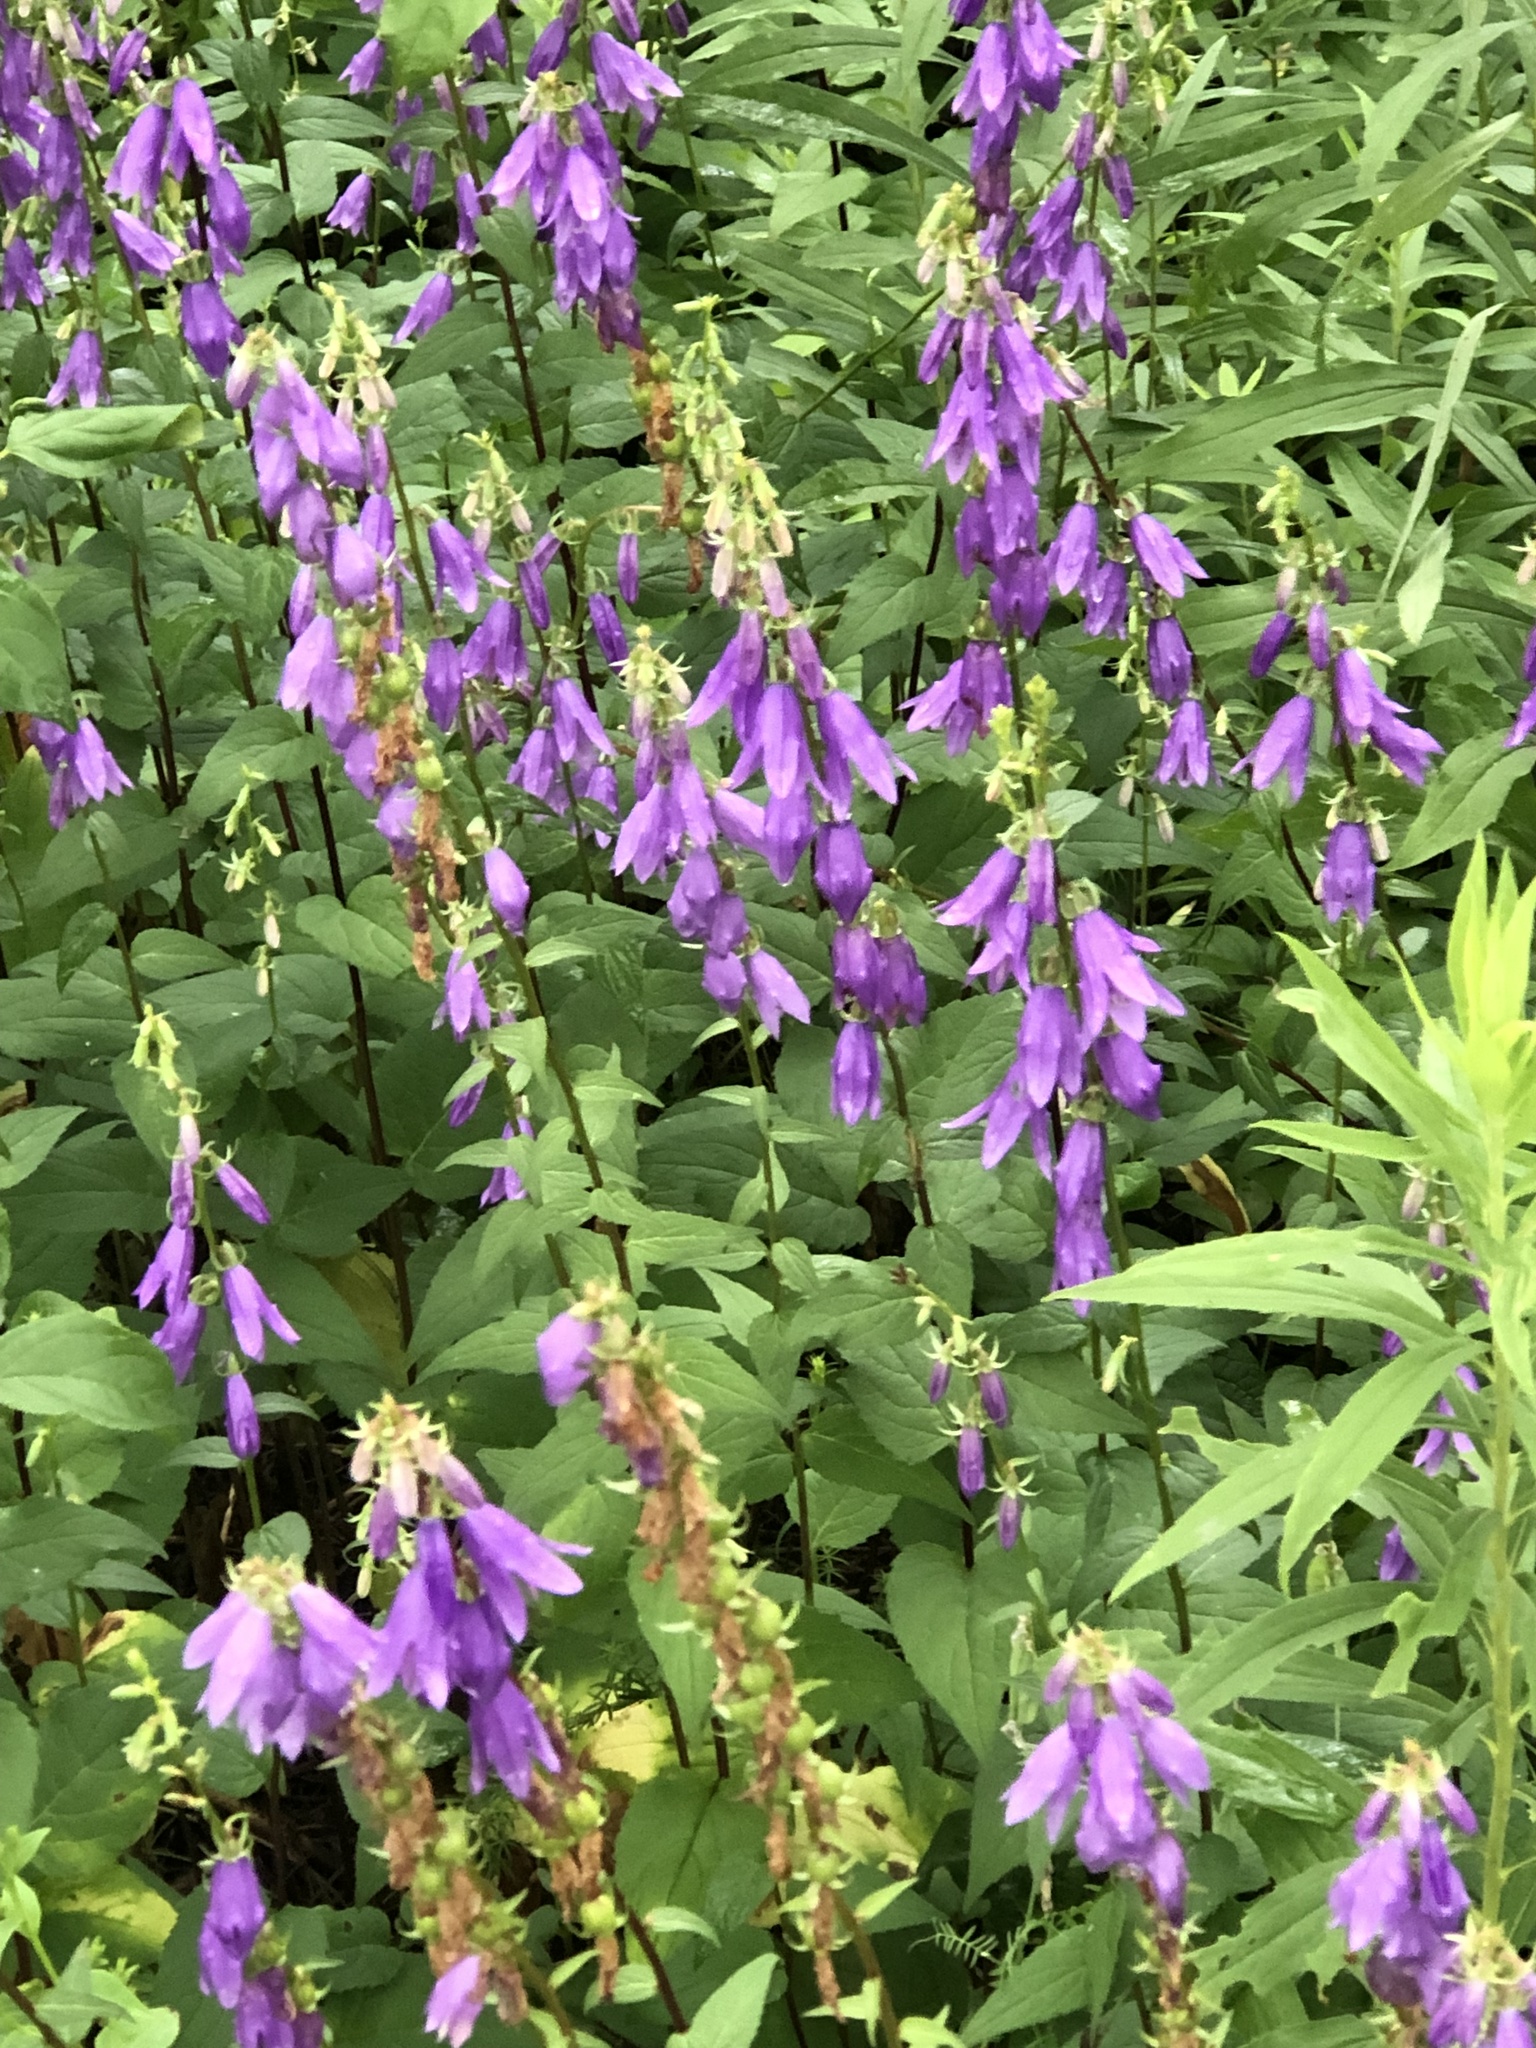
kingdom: Plantae
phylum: Tracheophyta
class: Magnoliopsida
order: Asterales
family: Campanulaceae
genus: Campanula
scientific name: Campanula rapunculoides
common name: Creeping bellflower
